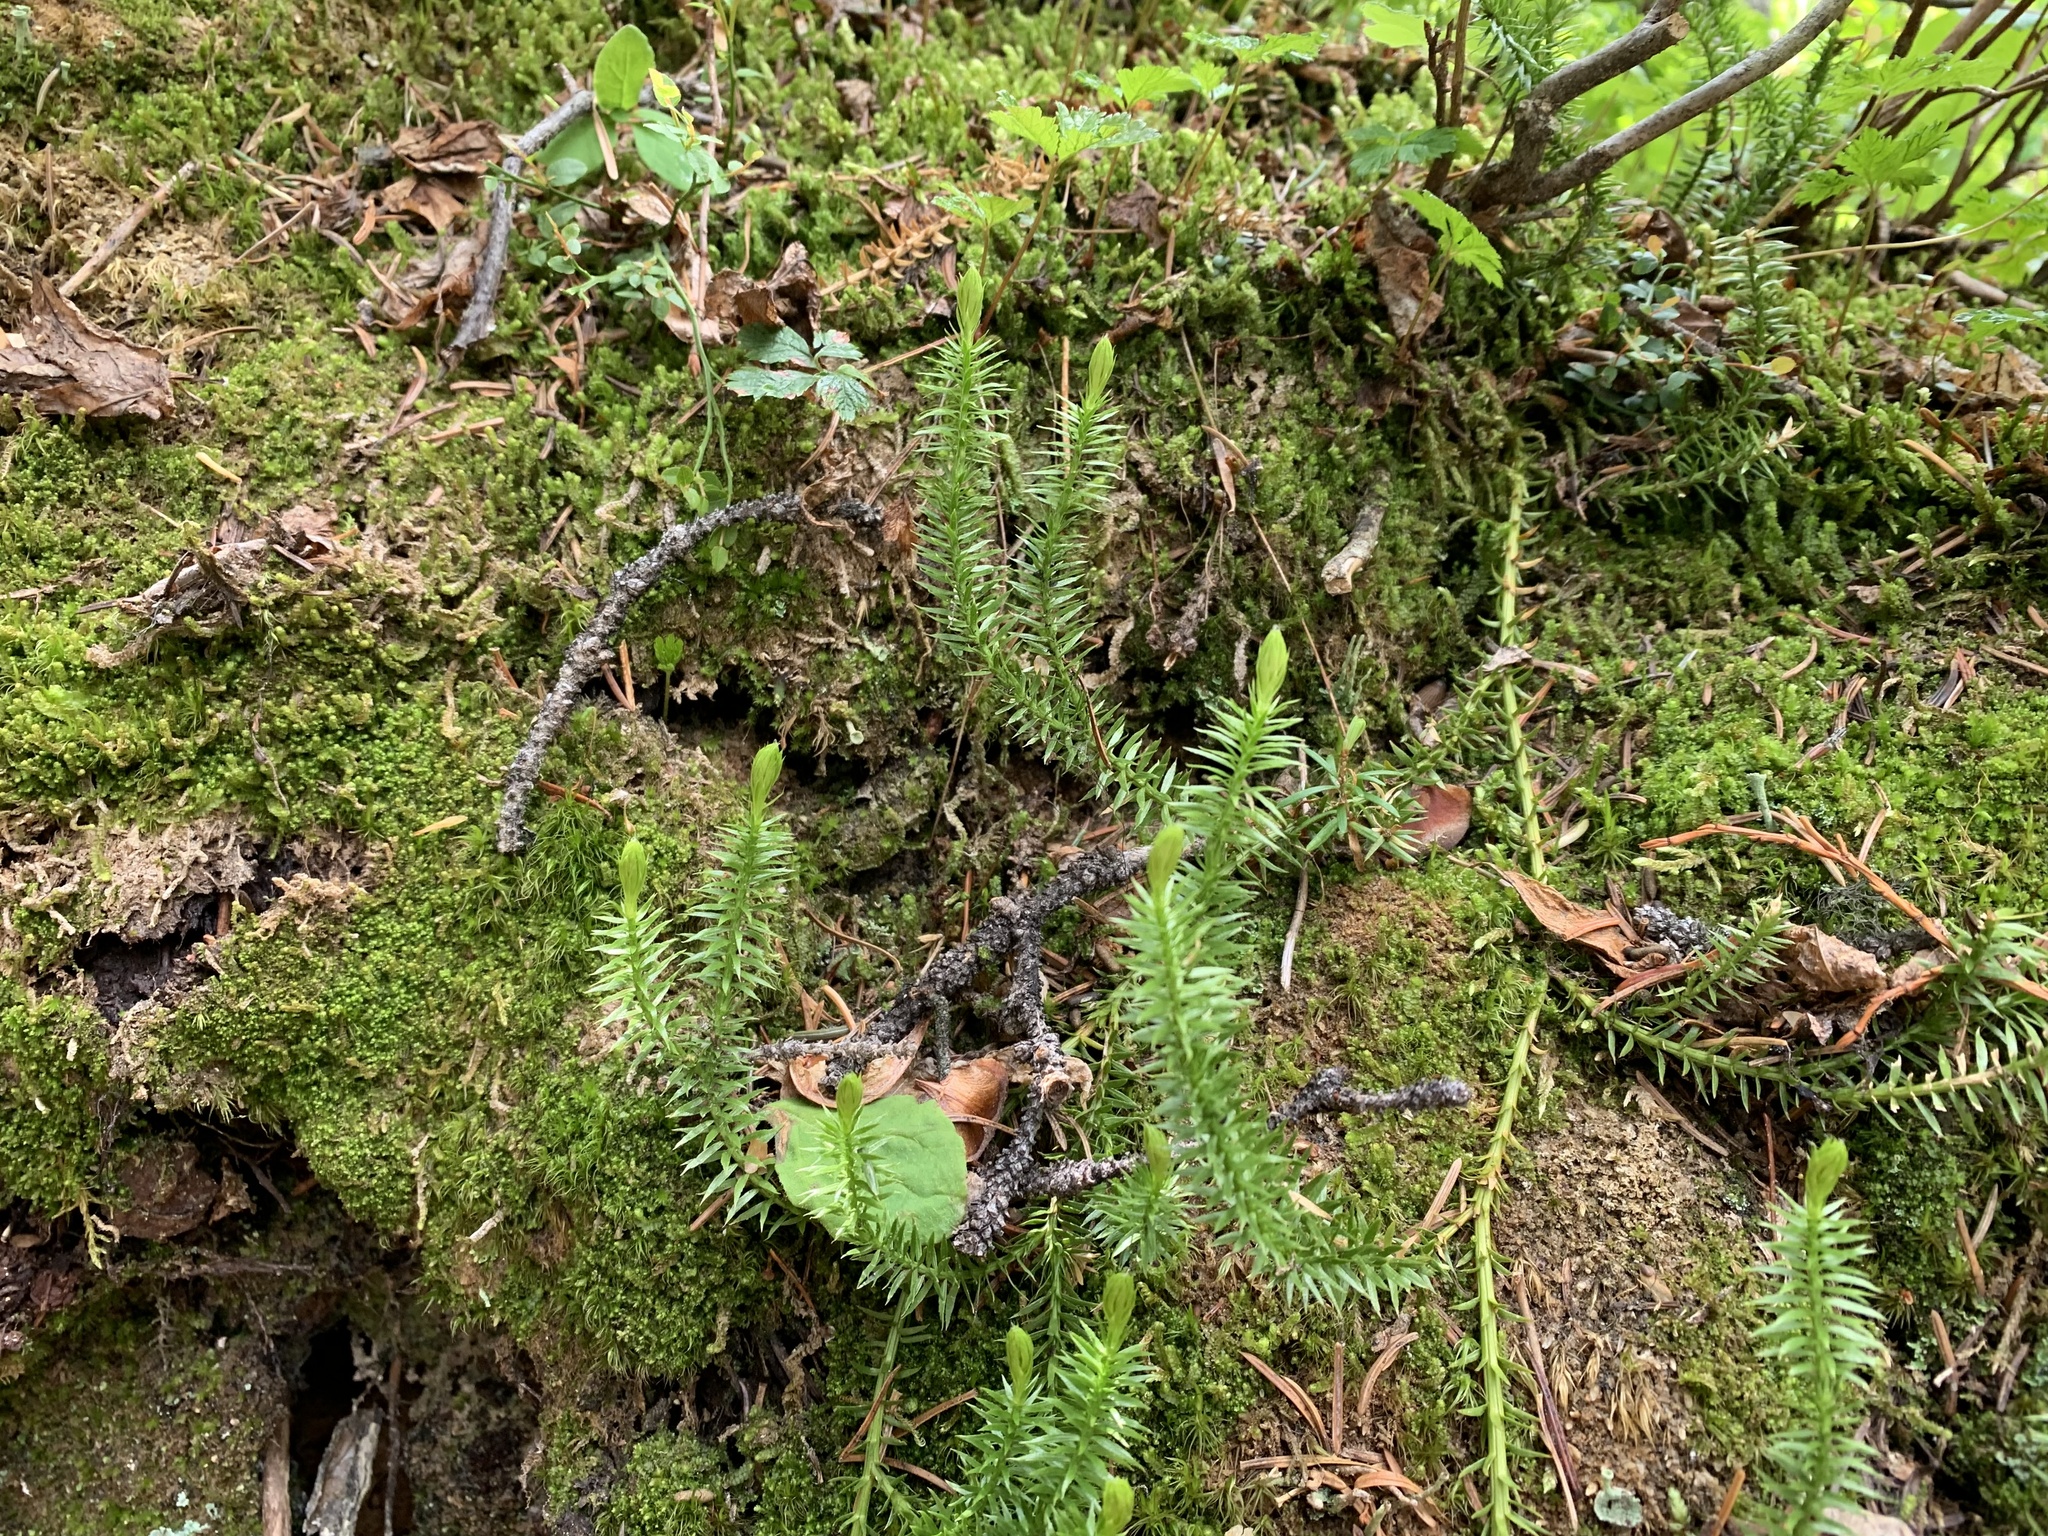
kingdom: Plantae
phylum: Tracheophyta
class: Lycopodiopsida
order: Lycopodiales
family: Lycopodiaceae
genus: Spinulum
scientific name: Spinulum annotinum
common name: Interrupted club-moss
